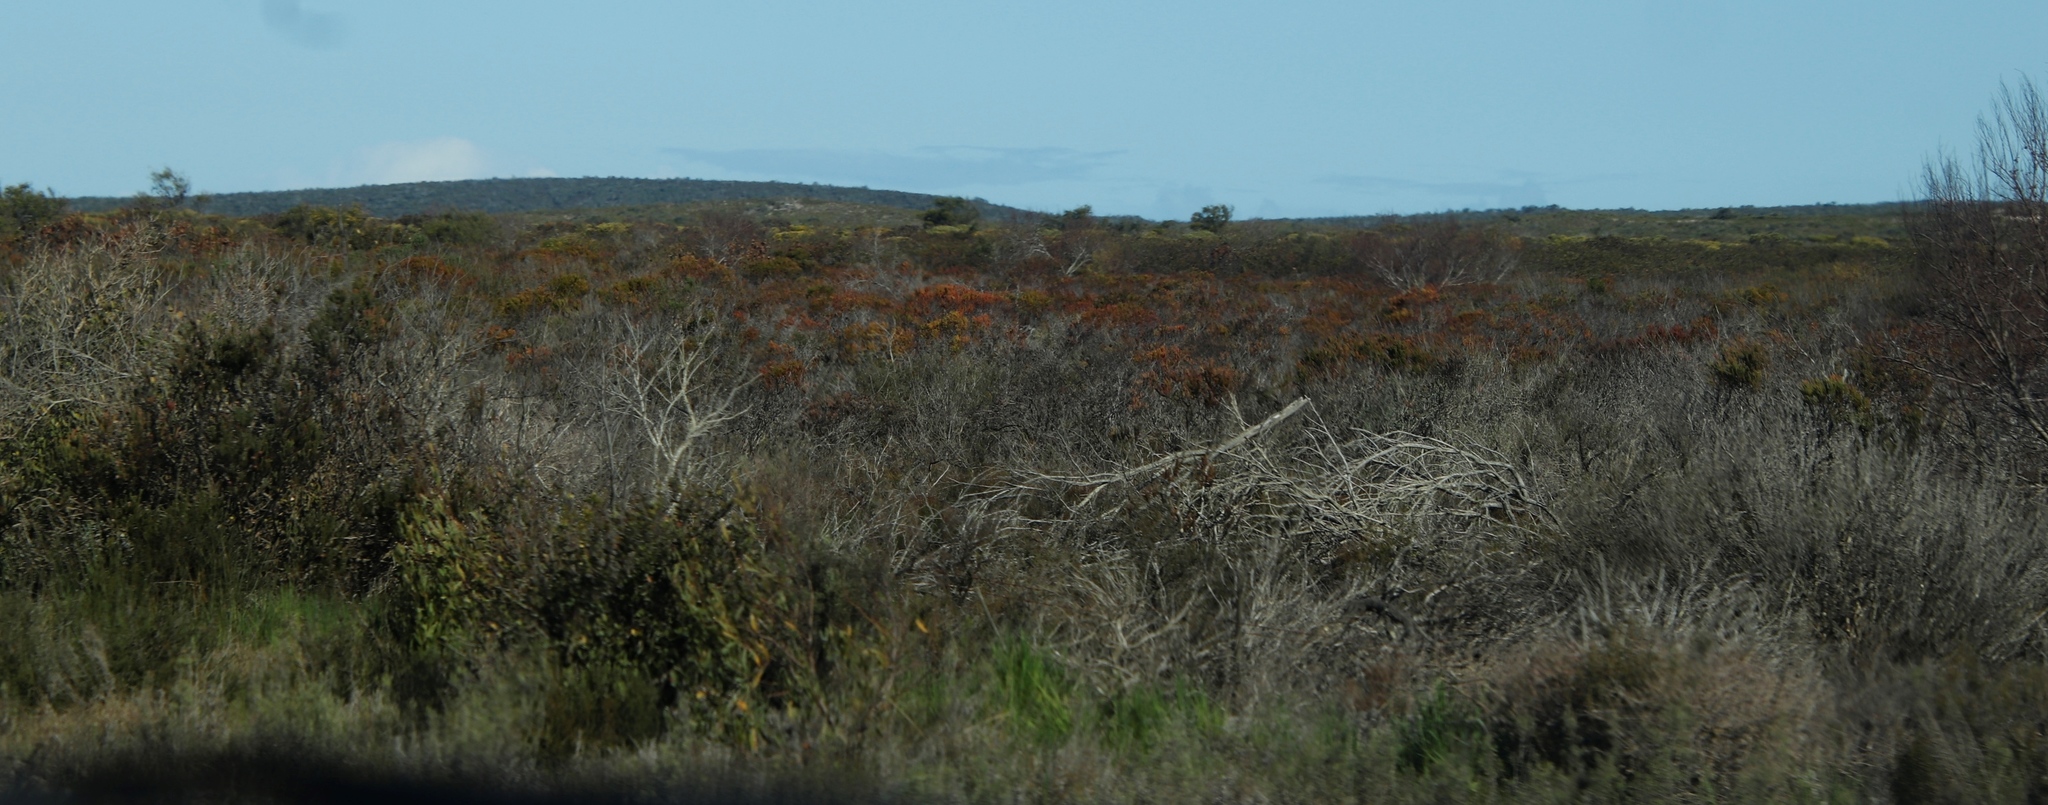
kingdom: Plantae
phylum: Tracheophyta
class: Magnoliopsida
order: Proteales
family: Proteaceae
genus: Leucadendron
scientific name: Leucadendron linifolium
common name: Line-leaf conebush
